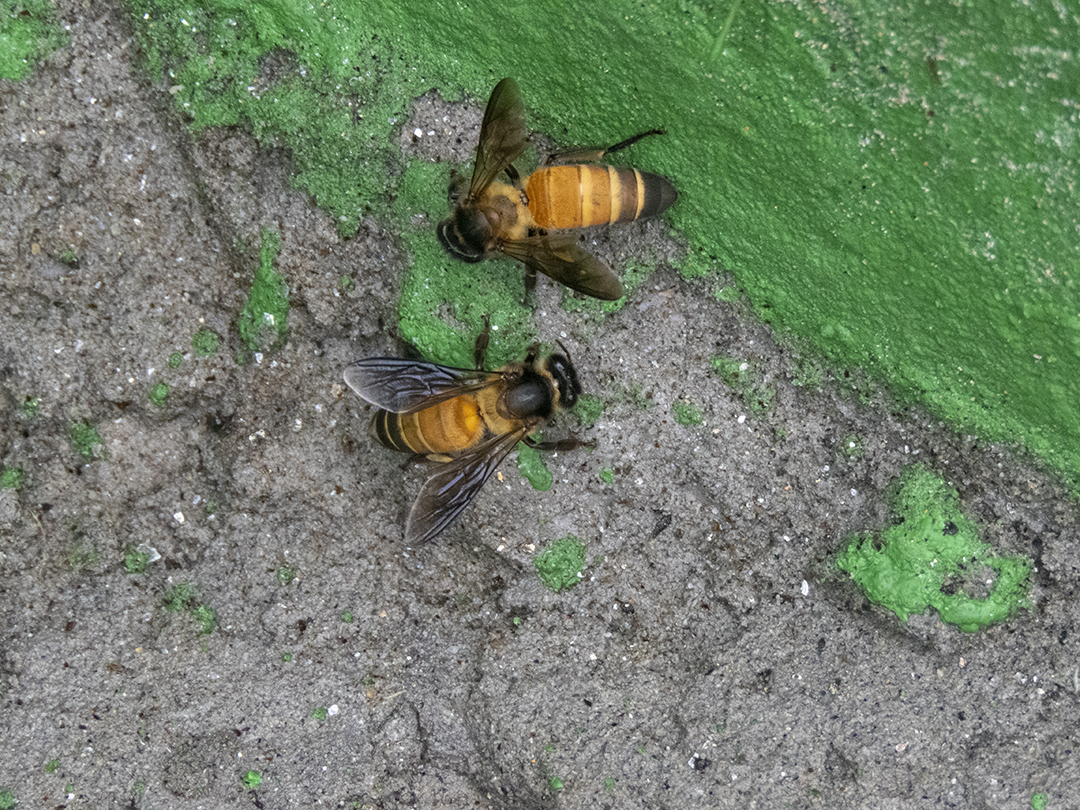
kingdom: Animalia
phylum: Arthropoda
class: Insecta
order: Hymenoptera
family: Apidae
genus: Apis
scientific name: Apis dorsata
